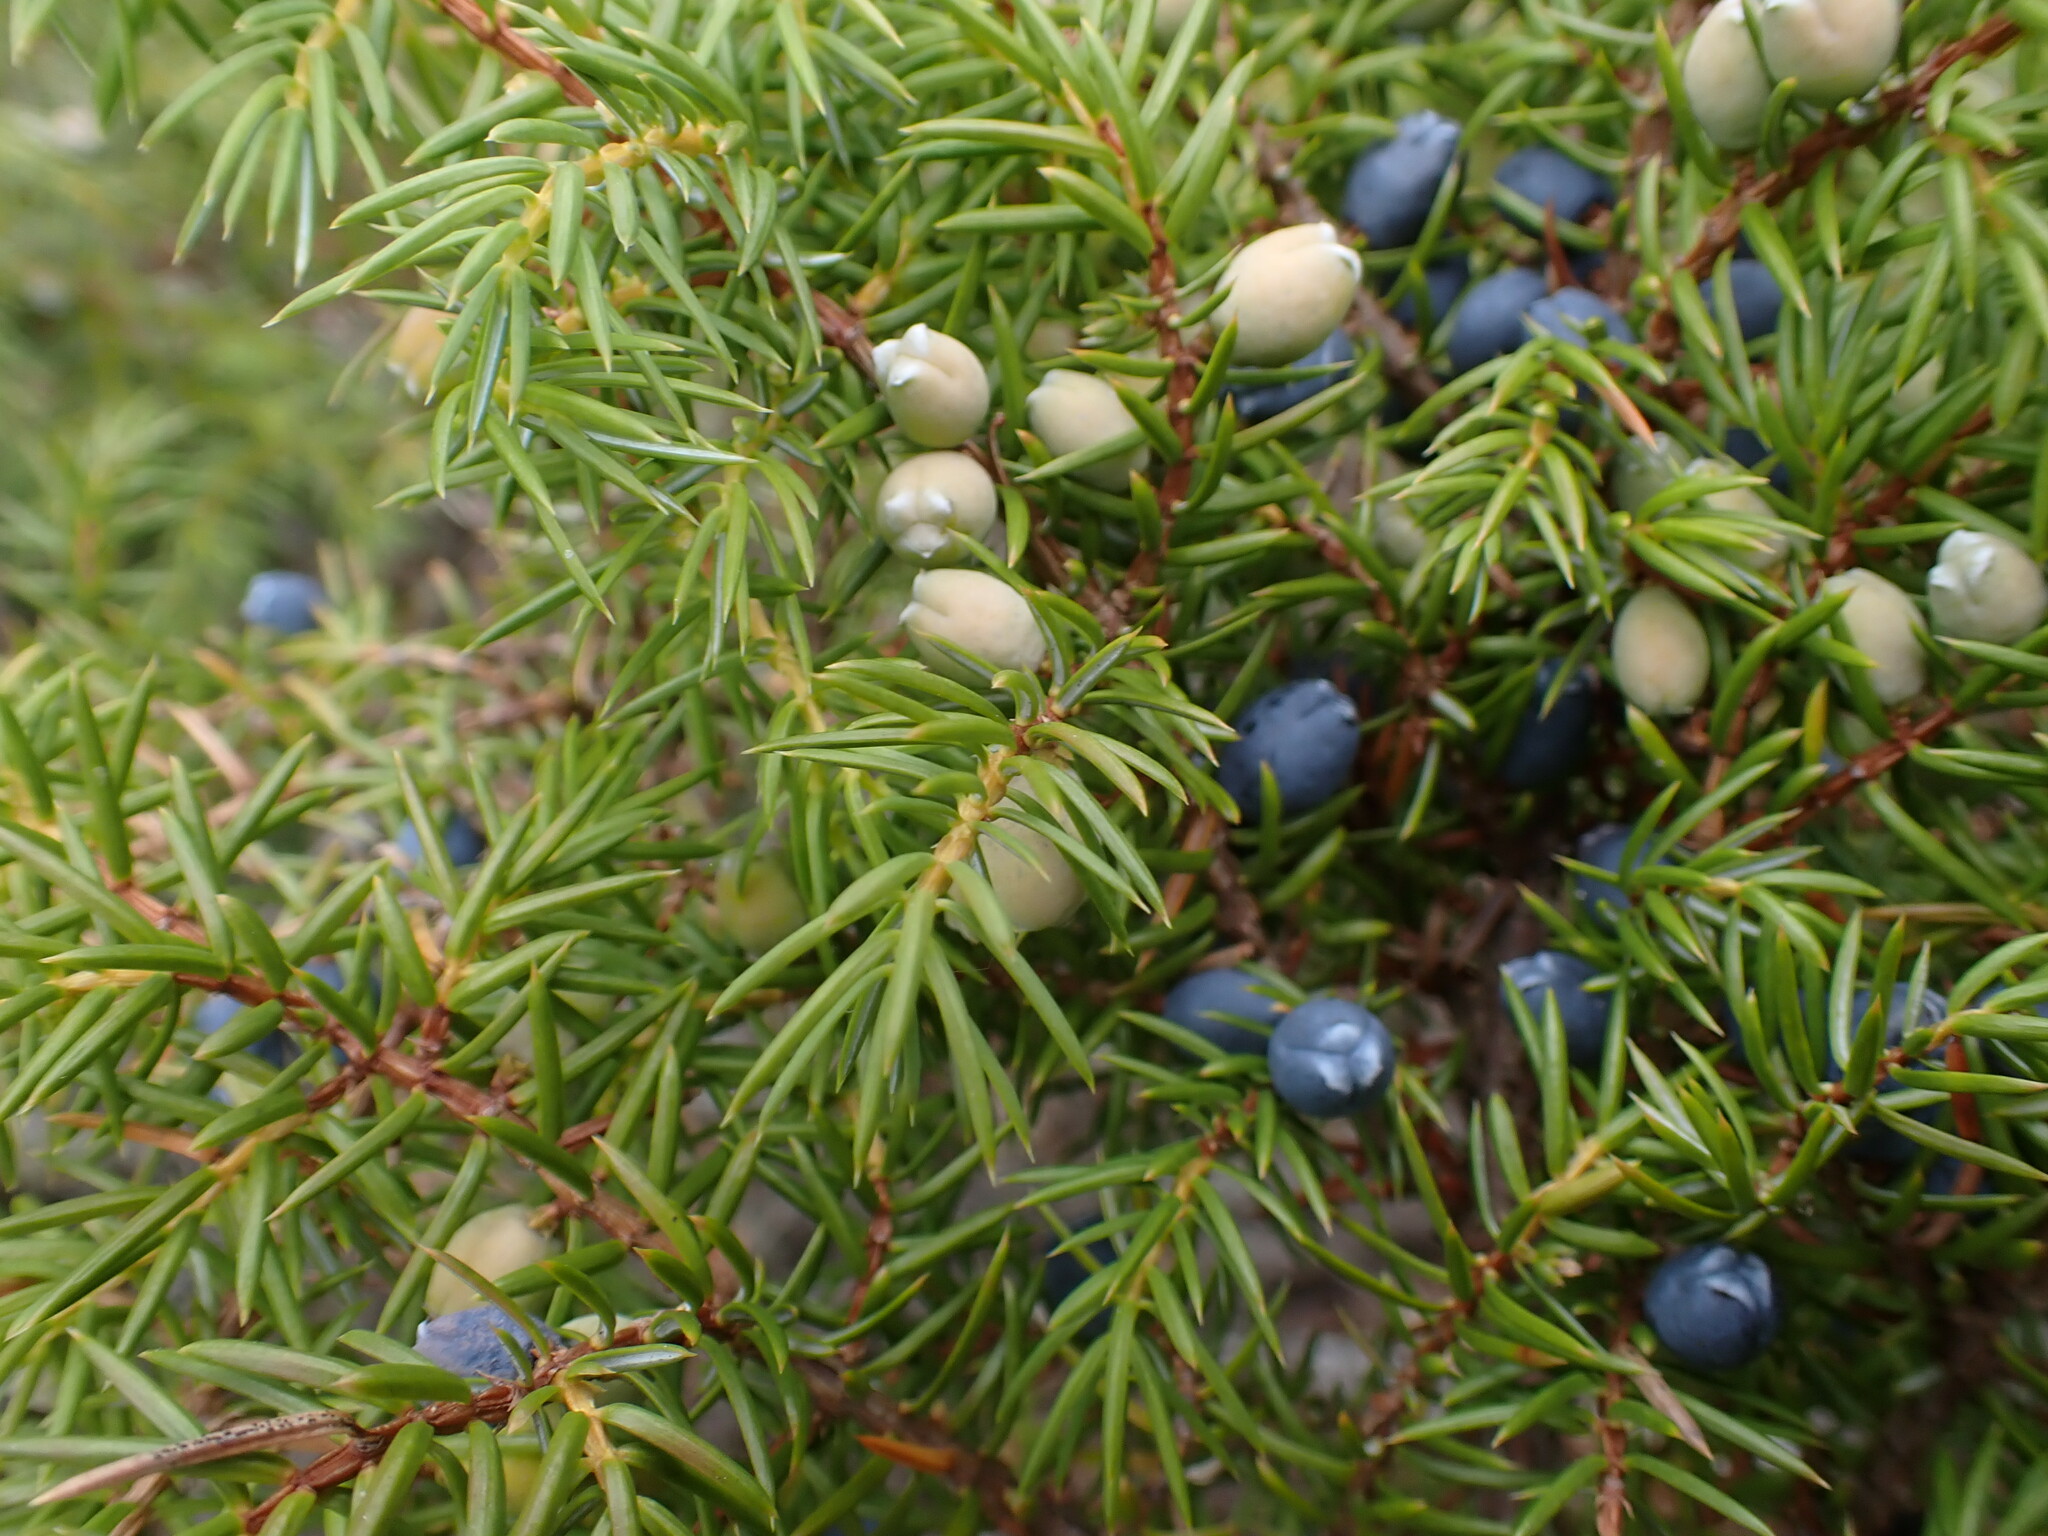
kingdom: Plantae
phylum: Tracheophyta
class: Pinopsida
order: Pinales
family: Cupressaceae
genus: Juniperus
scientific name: Juniperus communis
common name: Common juniper
